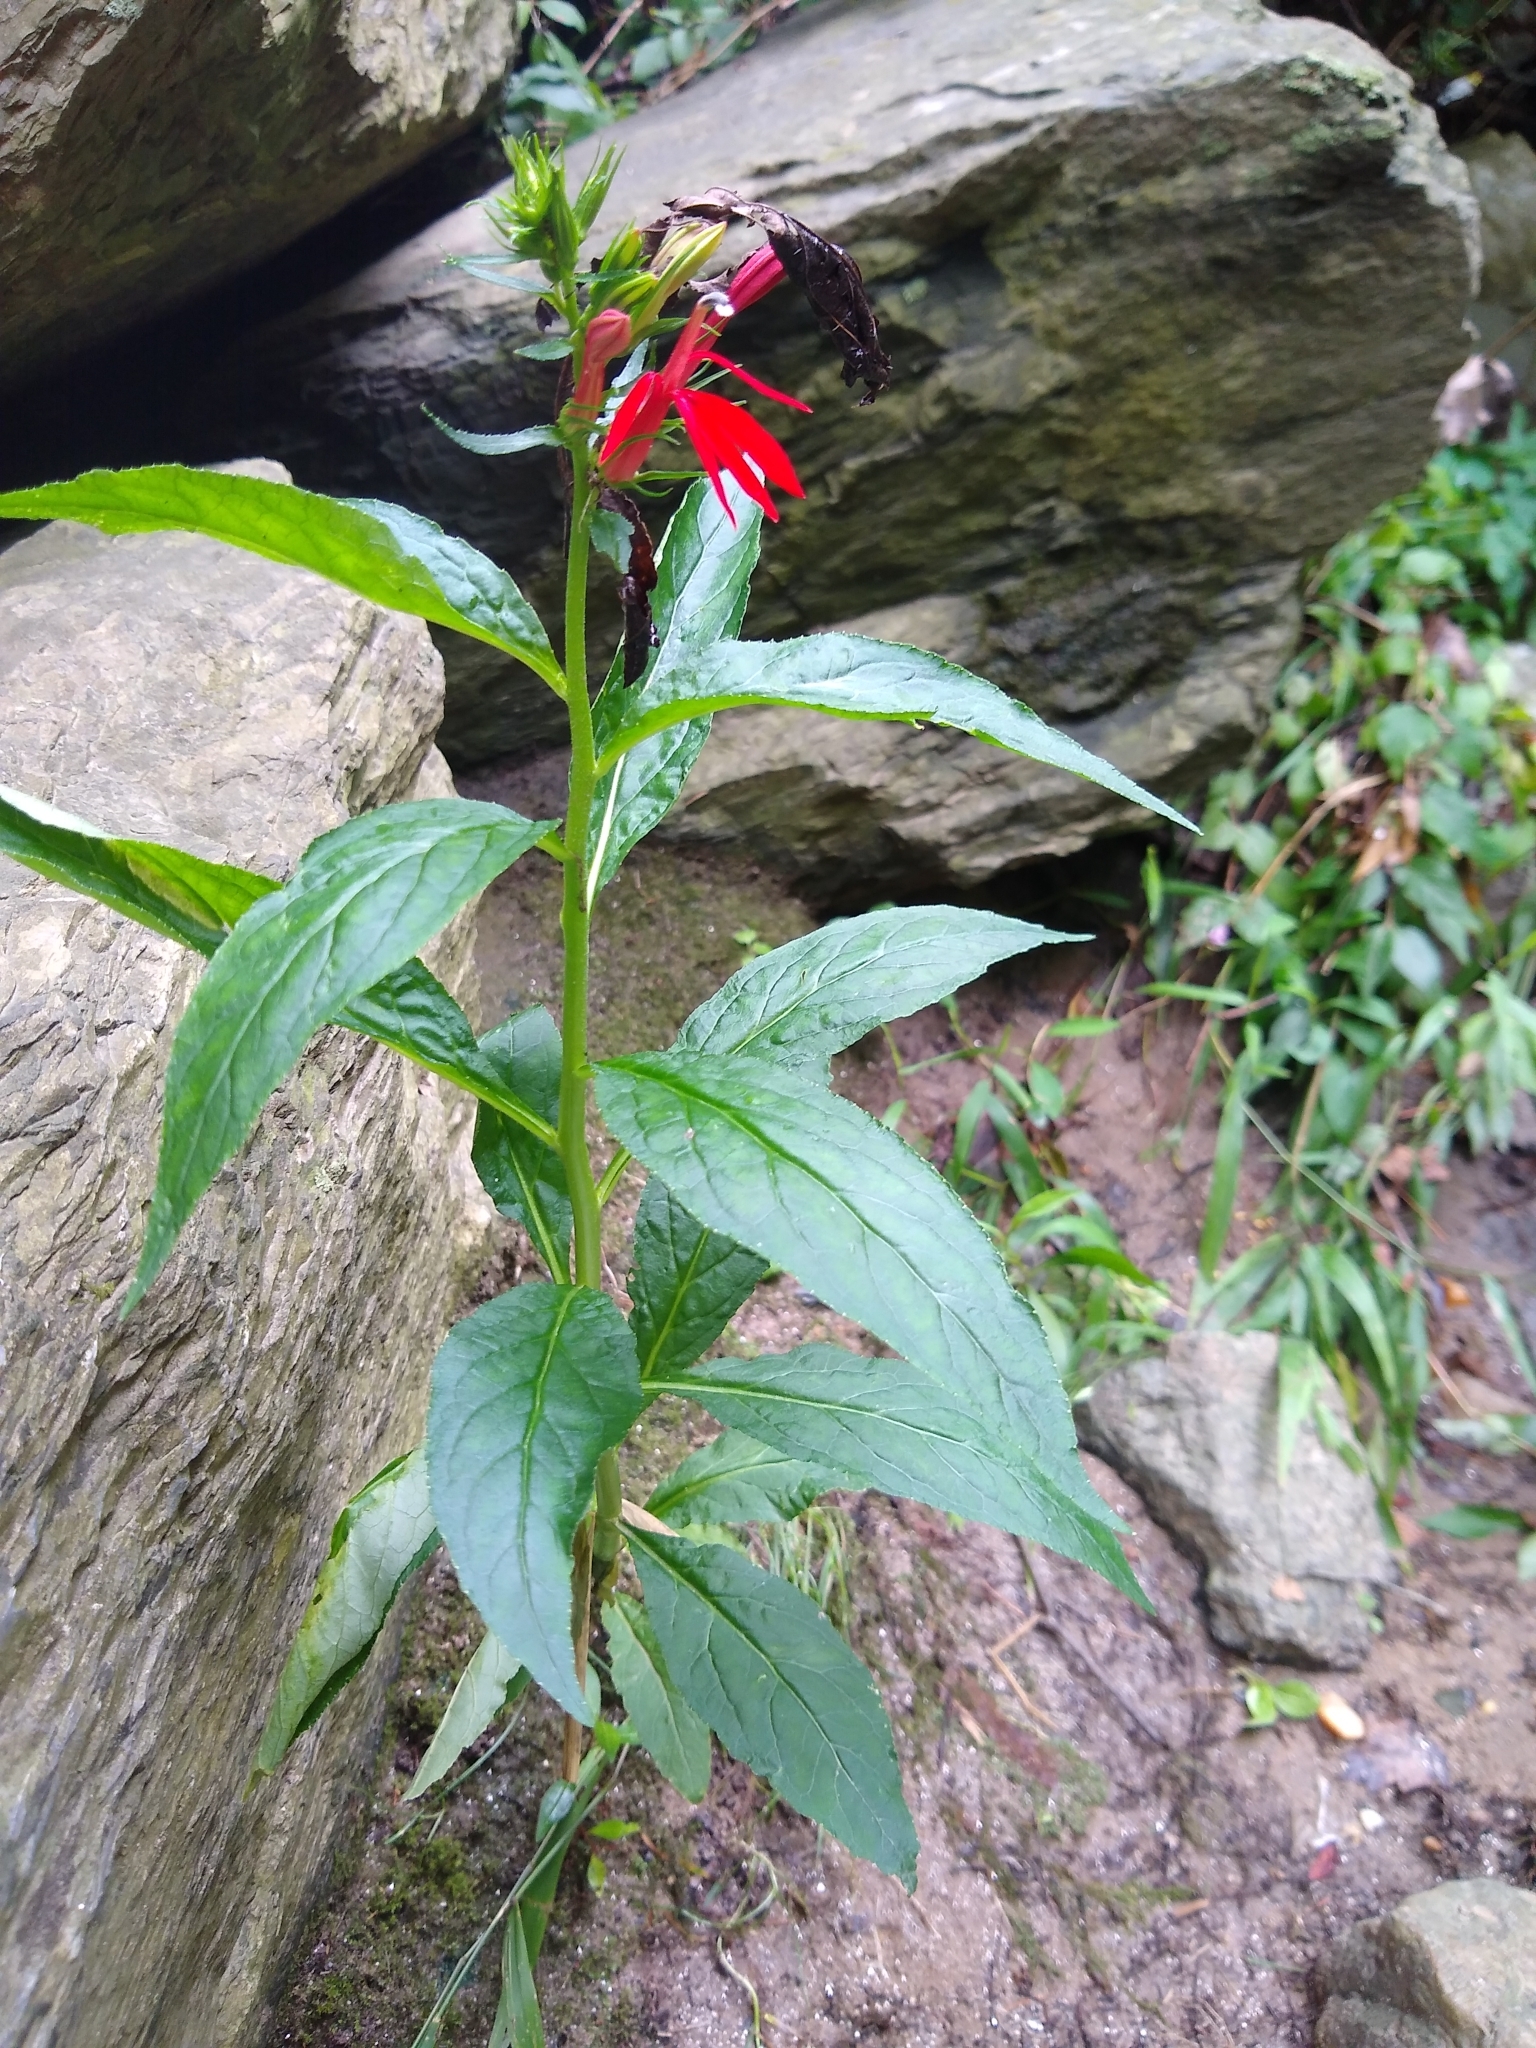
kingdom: Plantae
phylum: Tracheophyta
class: Magnoliopsida
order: Asterales
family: Campanulaceae
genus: Lobelia
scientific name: Lobelia cardinalis
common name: Cardinal flower
